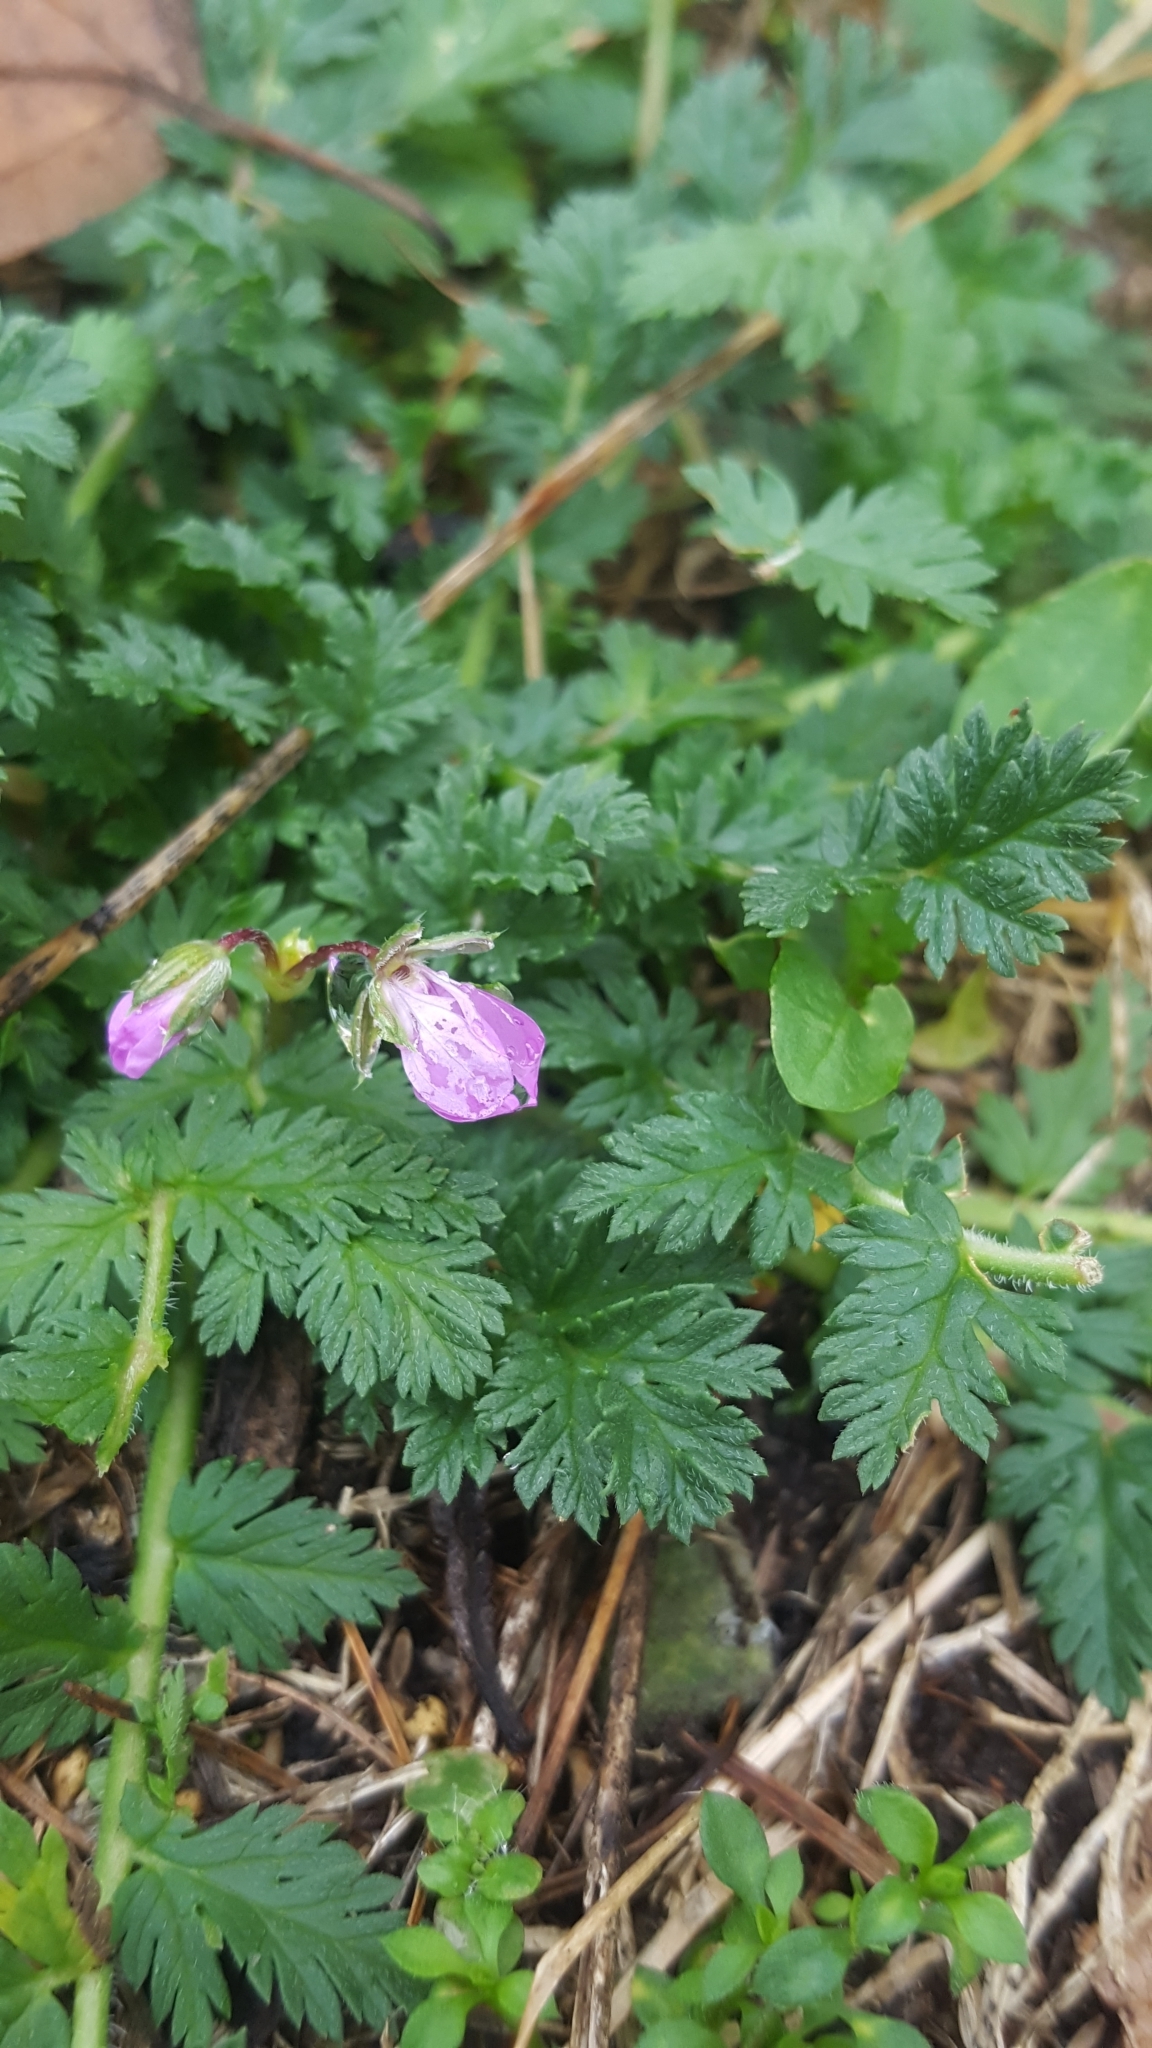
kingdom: Plantae
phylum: Tracheophyta
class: Magnoliopsida
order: Geraniales
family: Geraniaceae
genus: Erodium
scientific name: Erodium cicutarium
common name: Common stork's-bill
